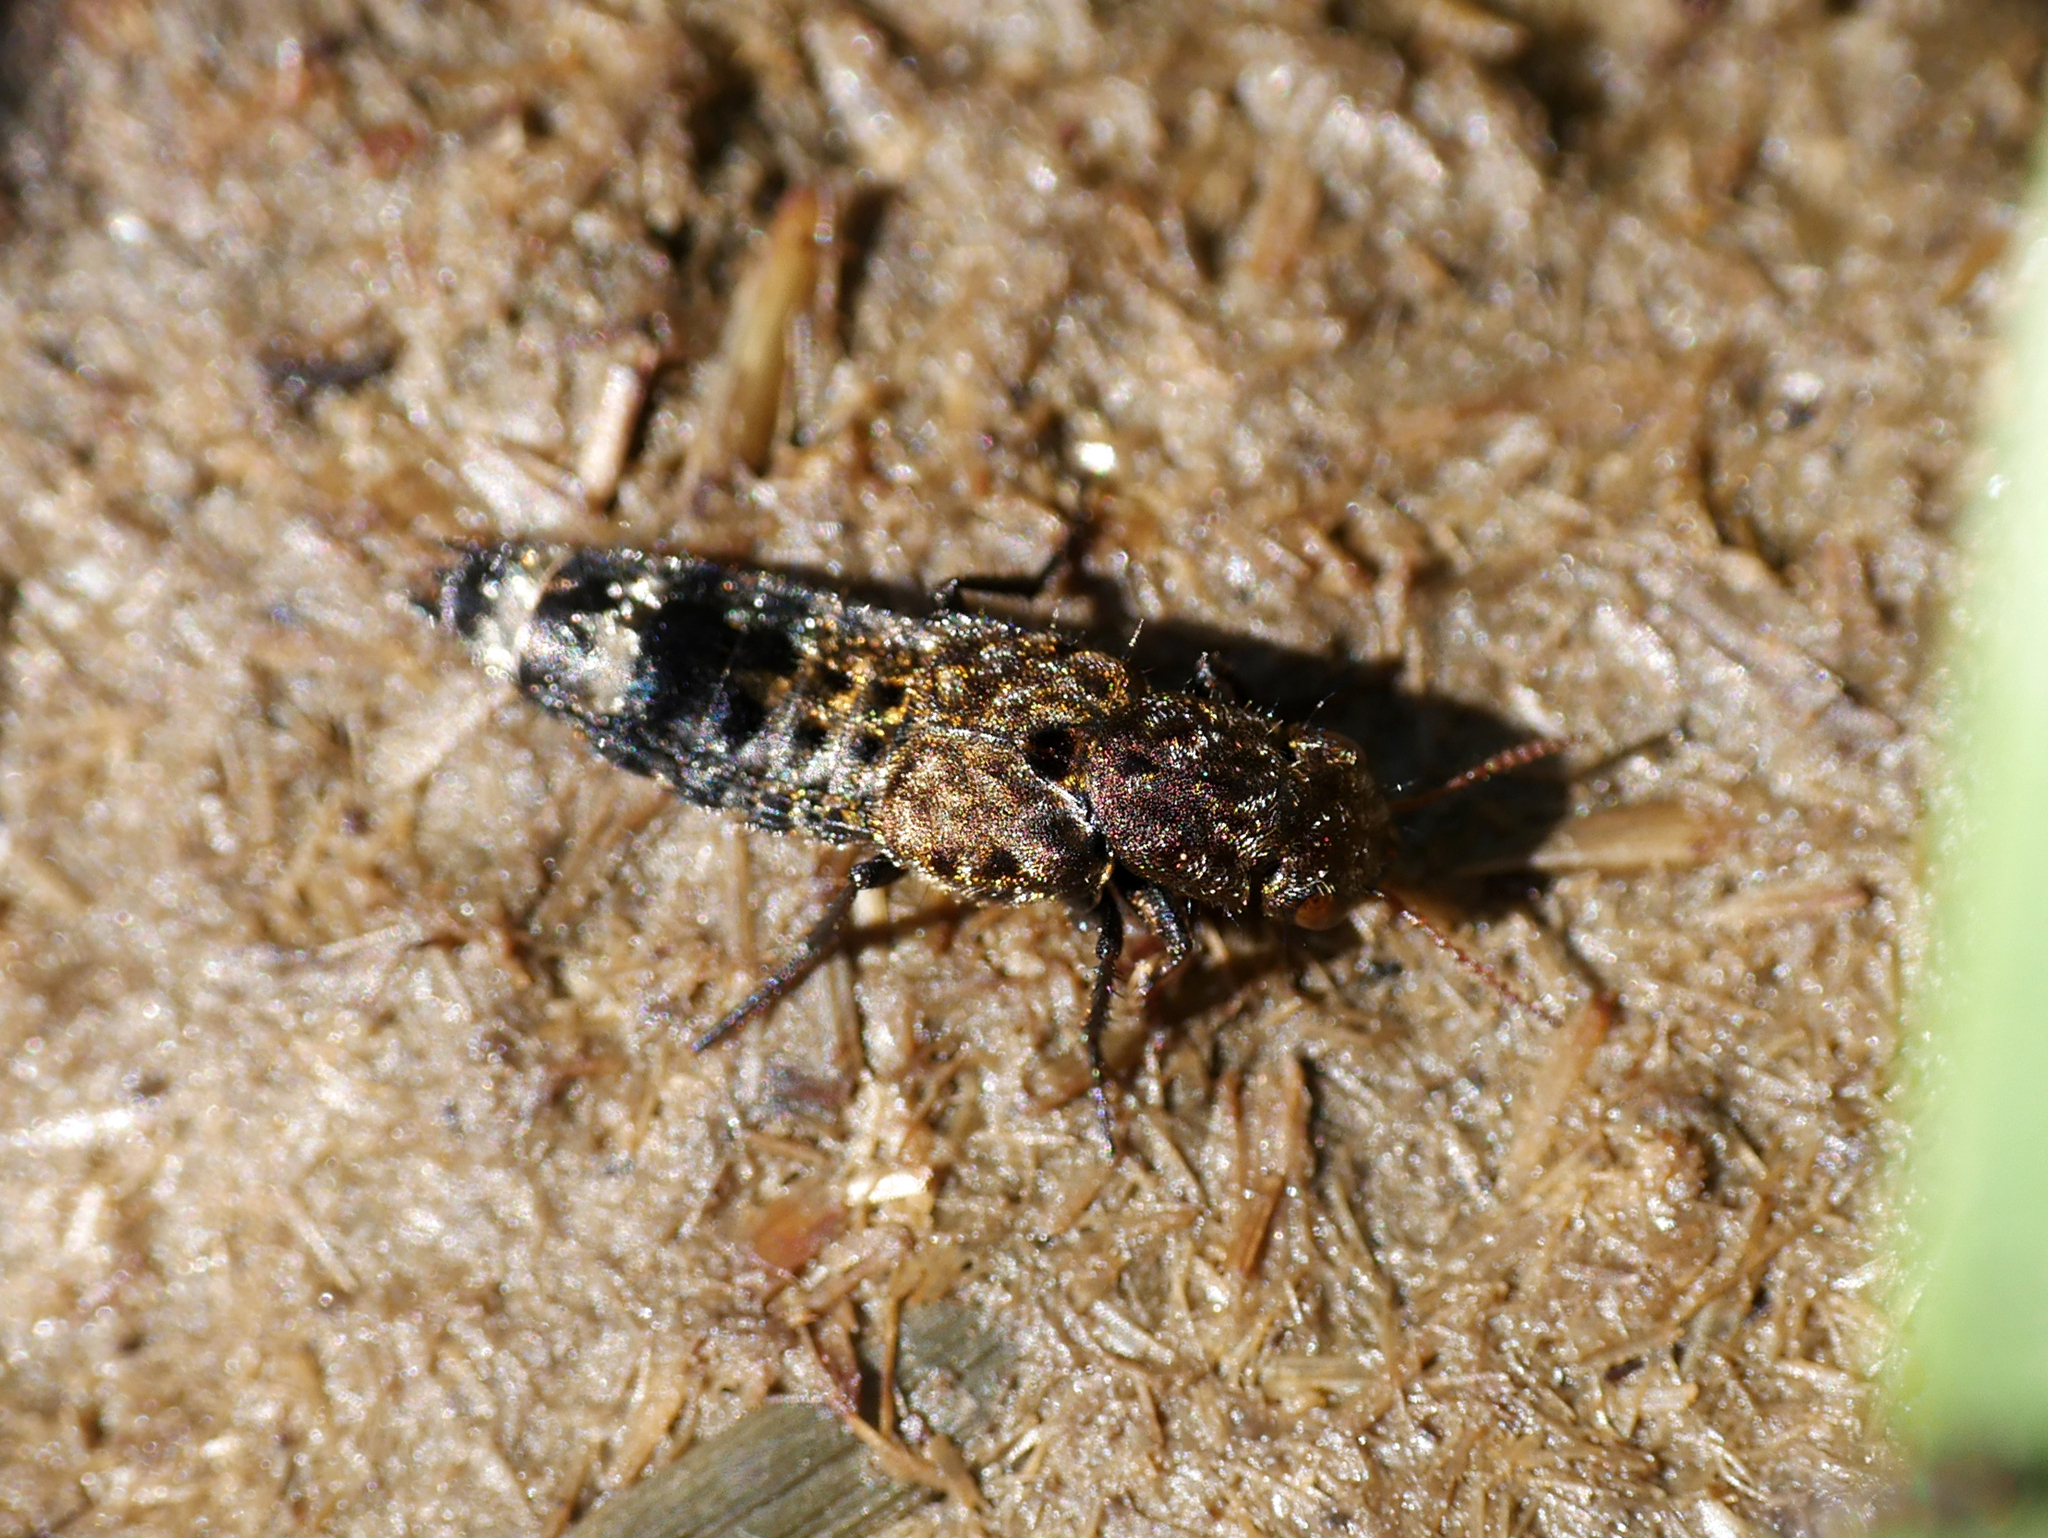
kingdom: Animalia
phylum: Arthropoda
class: Insecta
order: Coleoptera
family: Staphylinidae
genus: Ontholestes
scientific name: Ontholestes murinus
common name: Staph beetle
